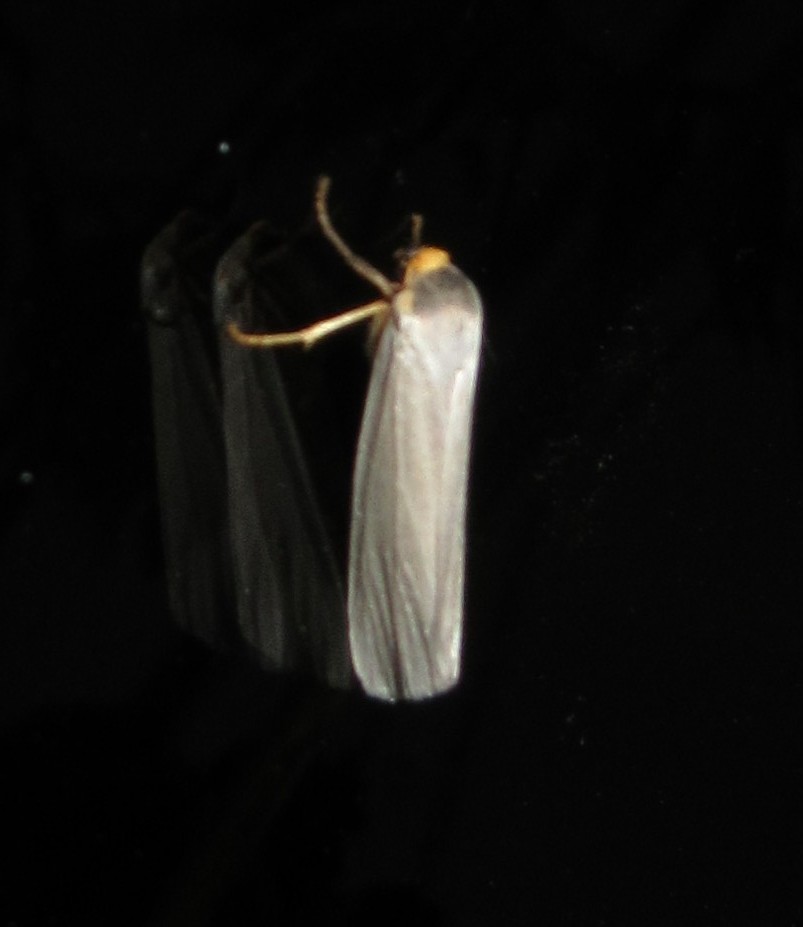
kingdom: Animalia
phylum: Arthropoda
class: Insecta
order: Lepidoptera
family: Erebidae
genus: Agylla
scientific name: Agylla argentea
